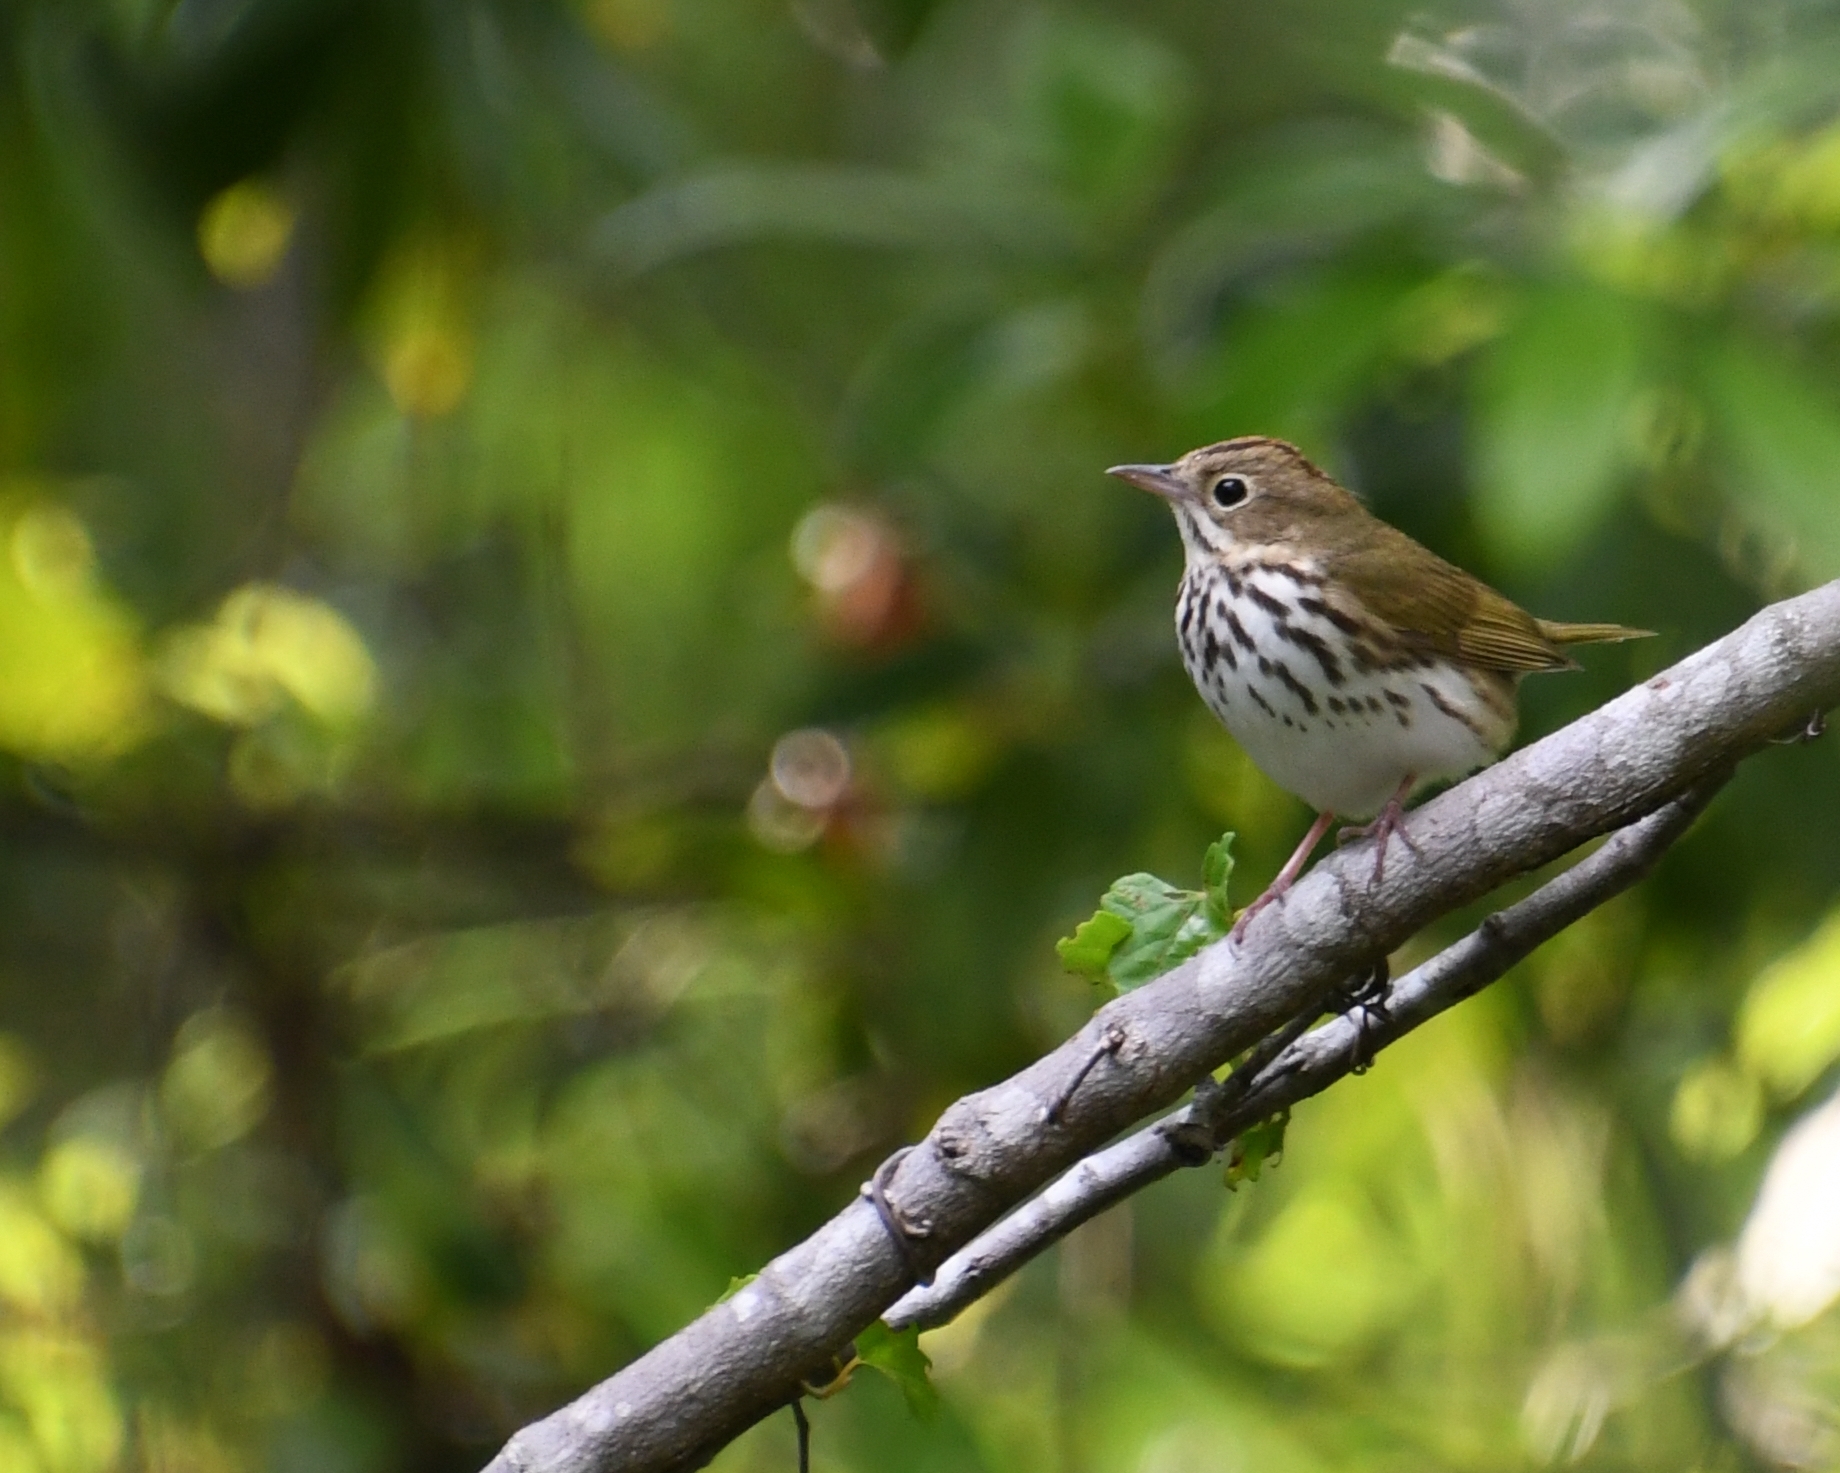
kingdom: Animalia
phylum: Chordata
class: Aves
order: Passeriformes
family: Parulidae
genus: Seiurus
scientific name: Seiurus aurocapilla
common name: Ovenbird
